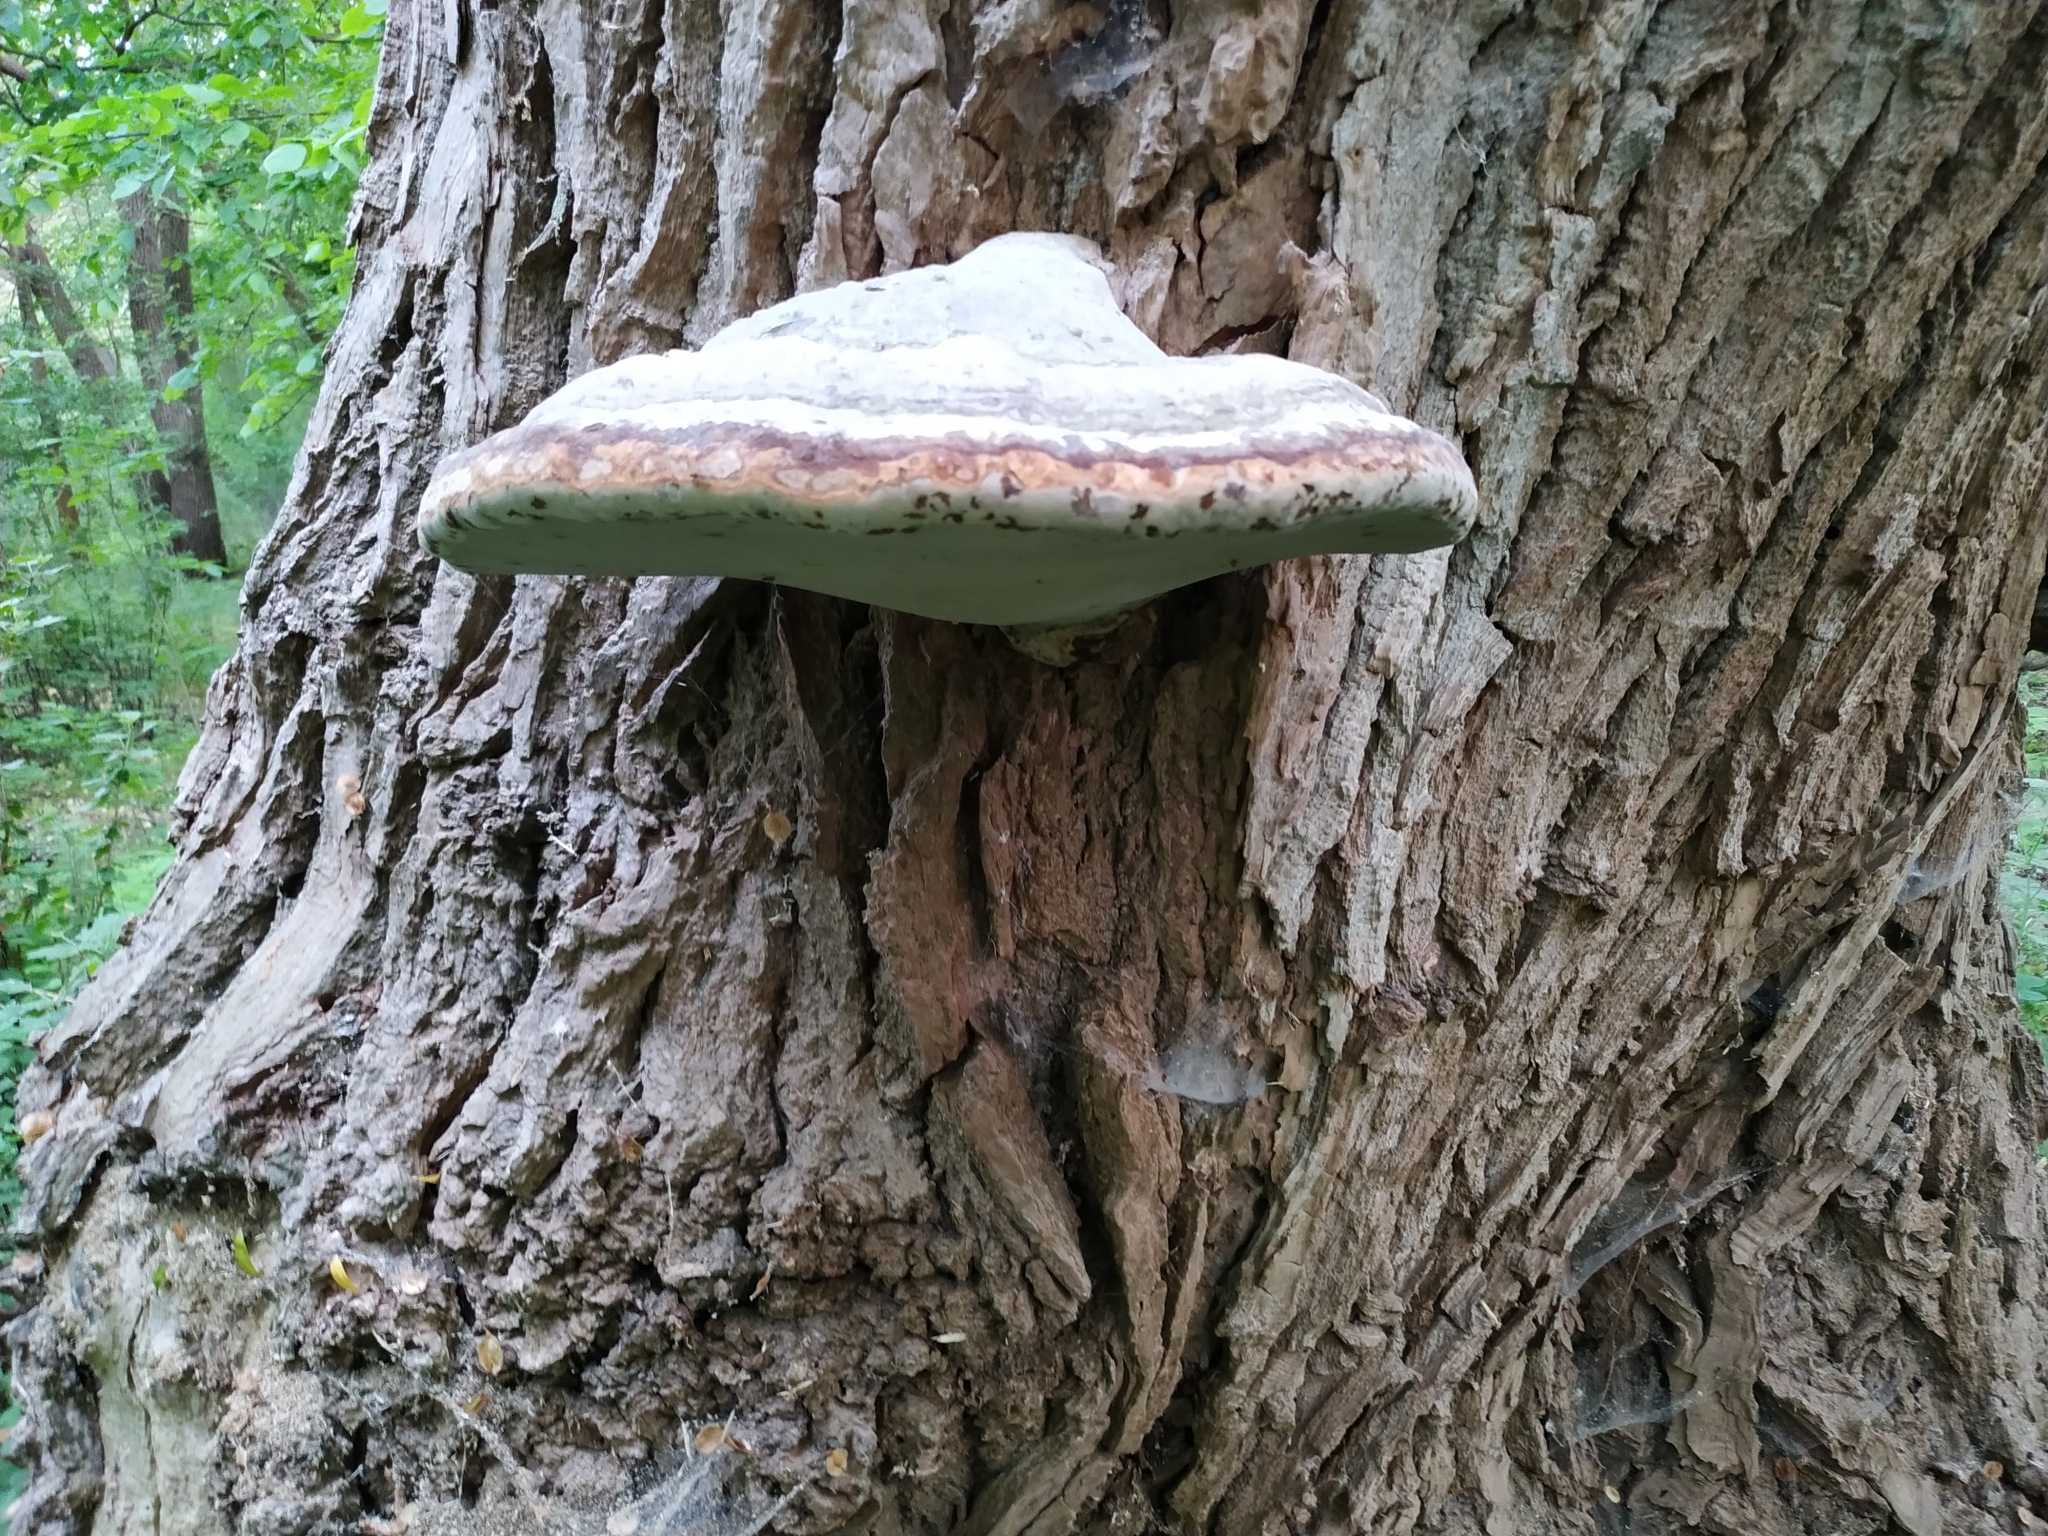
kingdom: Fungi
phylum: Basidiomycota
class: Agaricomycetes
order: Polyporales
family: Fomitopsidaceae
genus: Fomitopsis
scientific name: Fomitopsis pinicola
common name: Red-belted bracket
